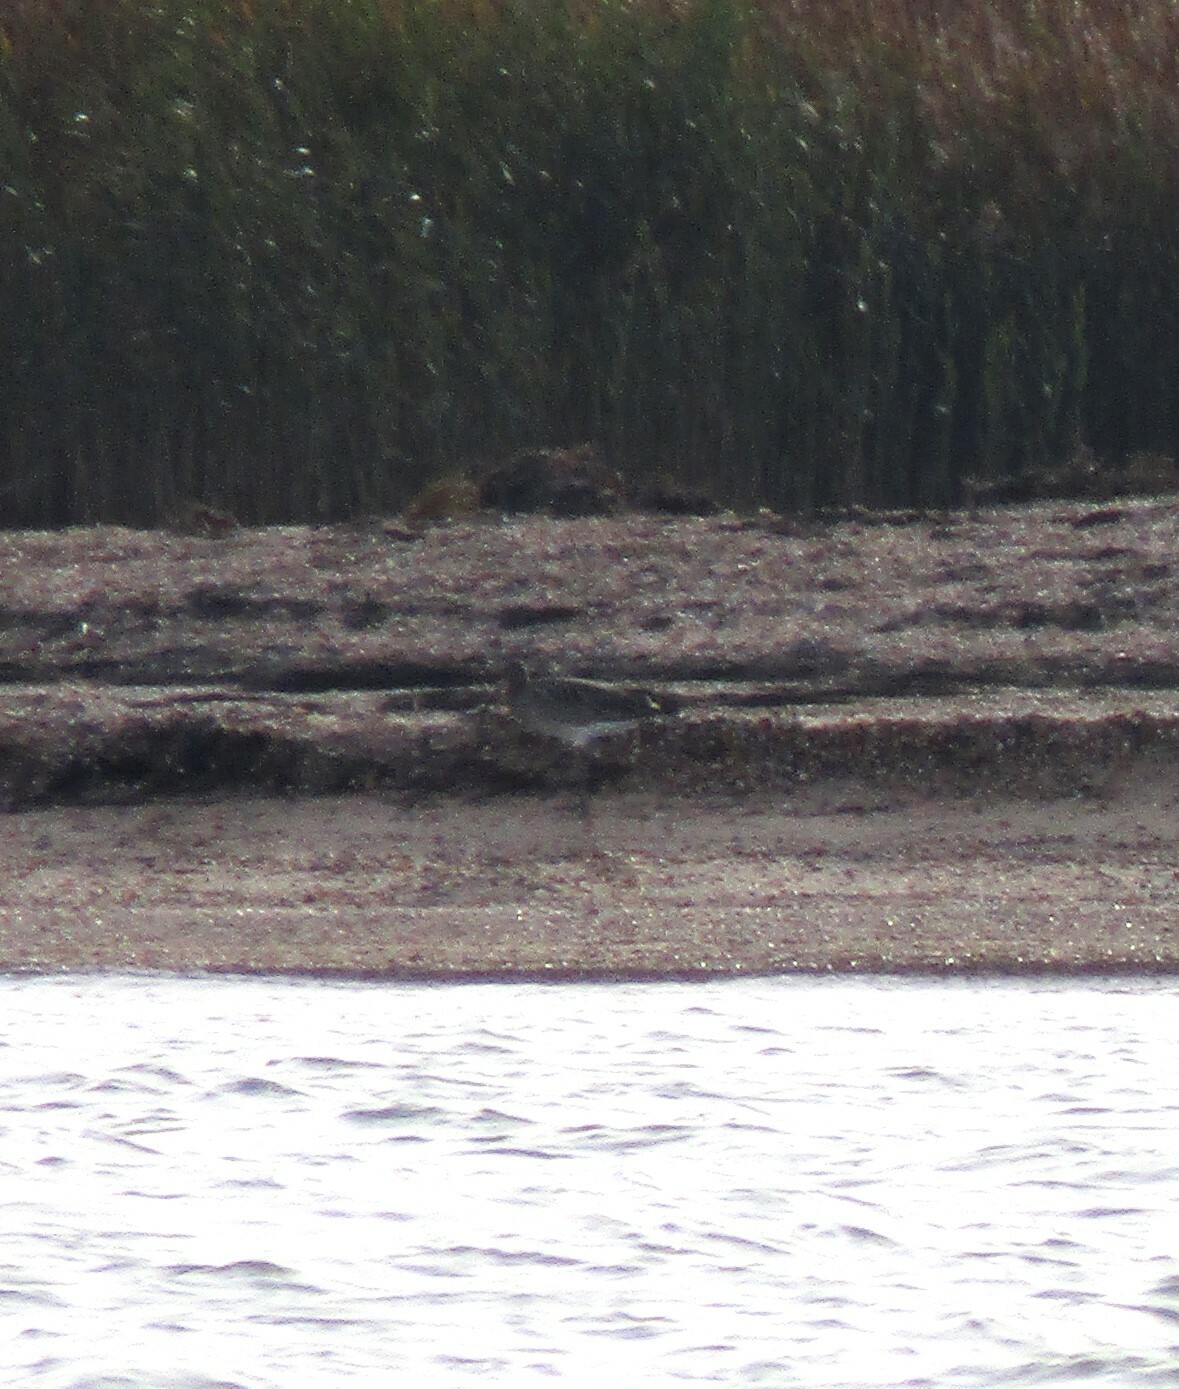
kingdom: Animalia
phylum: Chordata
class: Aves
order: Charadriiformes
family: Scolopacidae
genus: Numenius
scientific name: Numenius arquata
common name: Eurasian curlew
